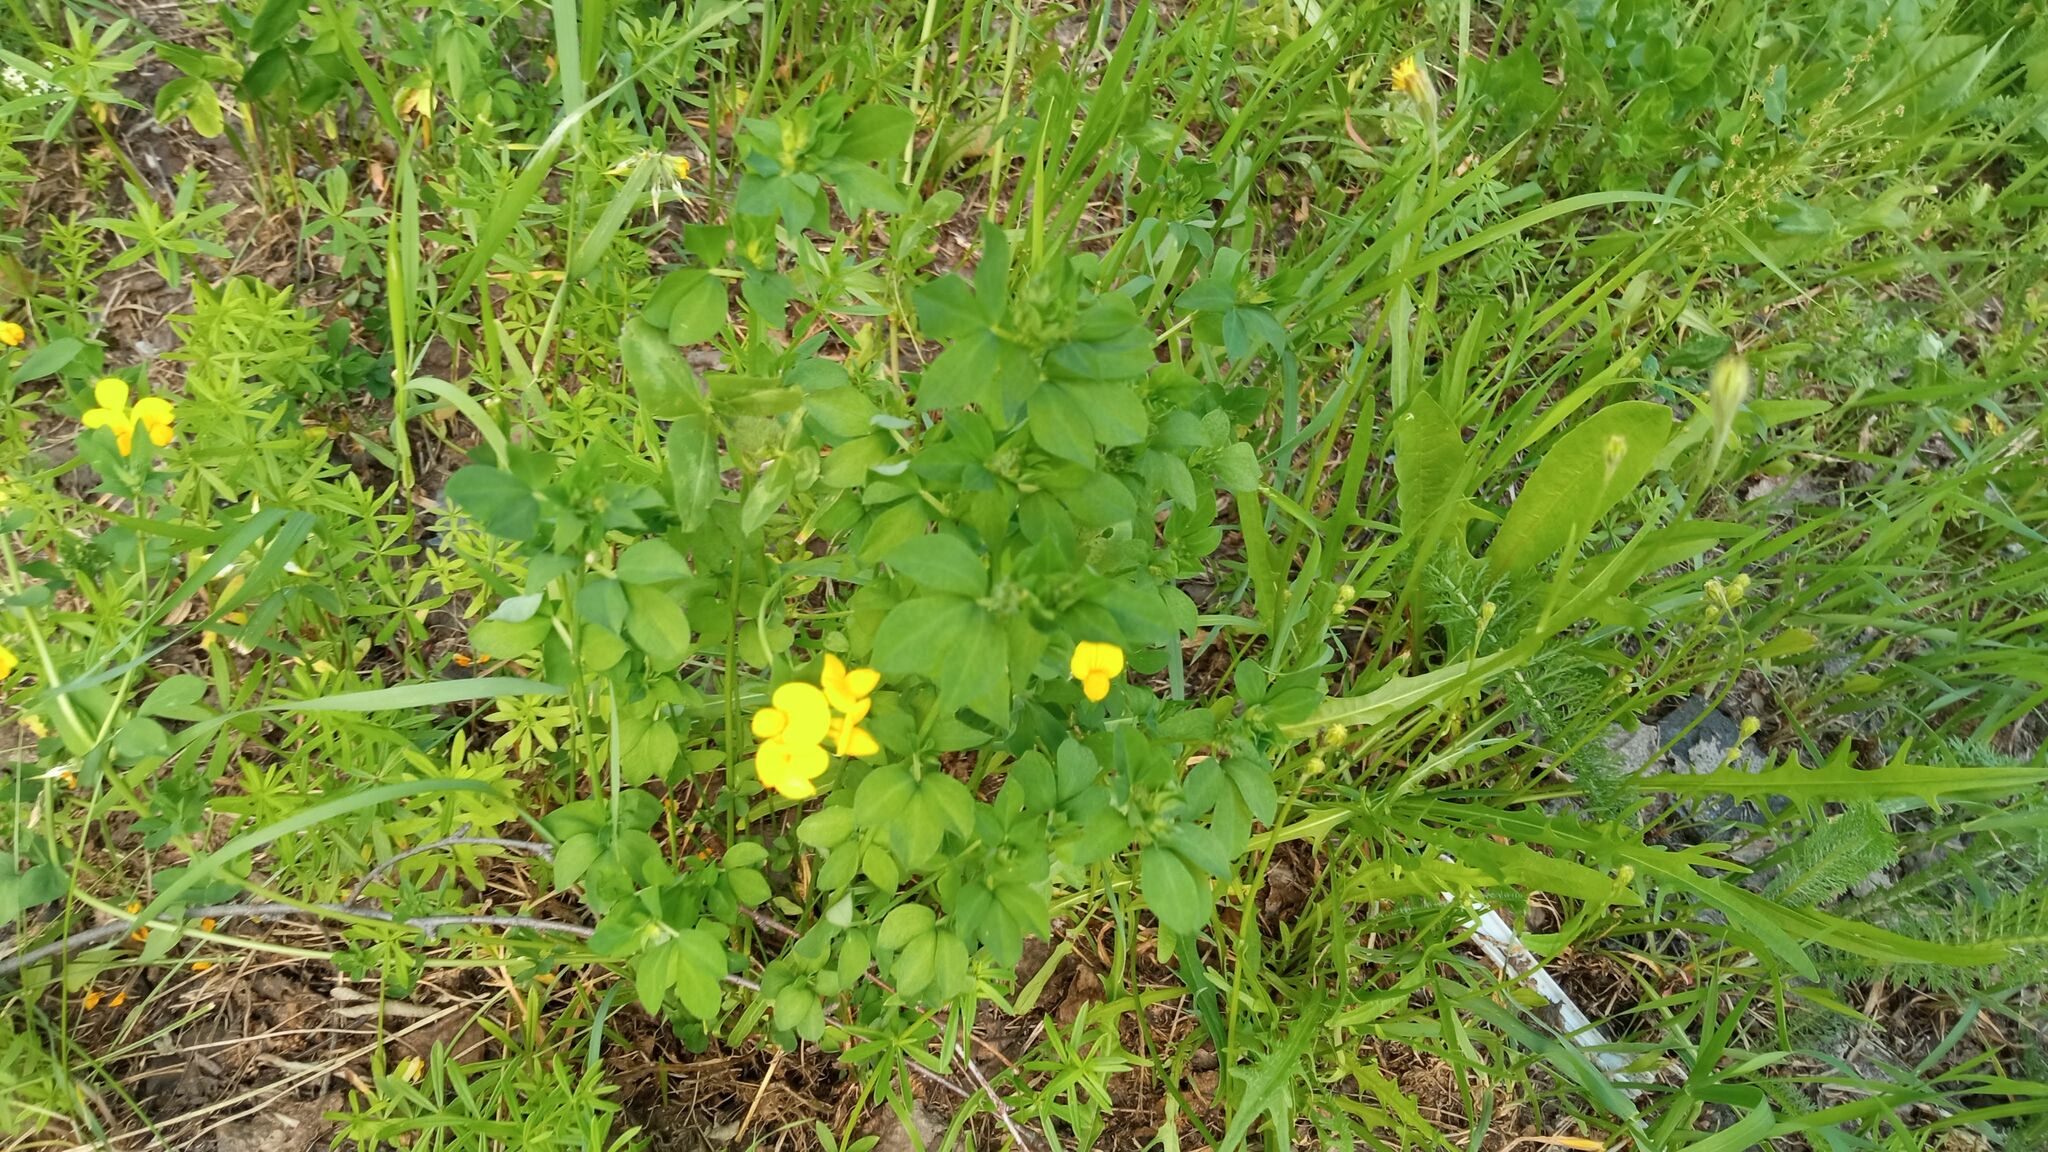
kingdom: Plantae
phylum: Tracheophyta
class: Magnoliopsida
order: Fabales
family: Fabaceae
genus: Lotus
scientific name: Lotus corniculatus
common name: Common bird's-foot-trefoil
